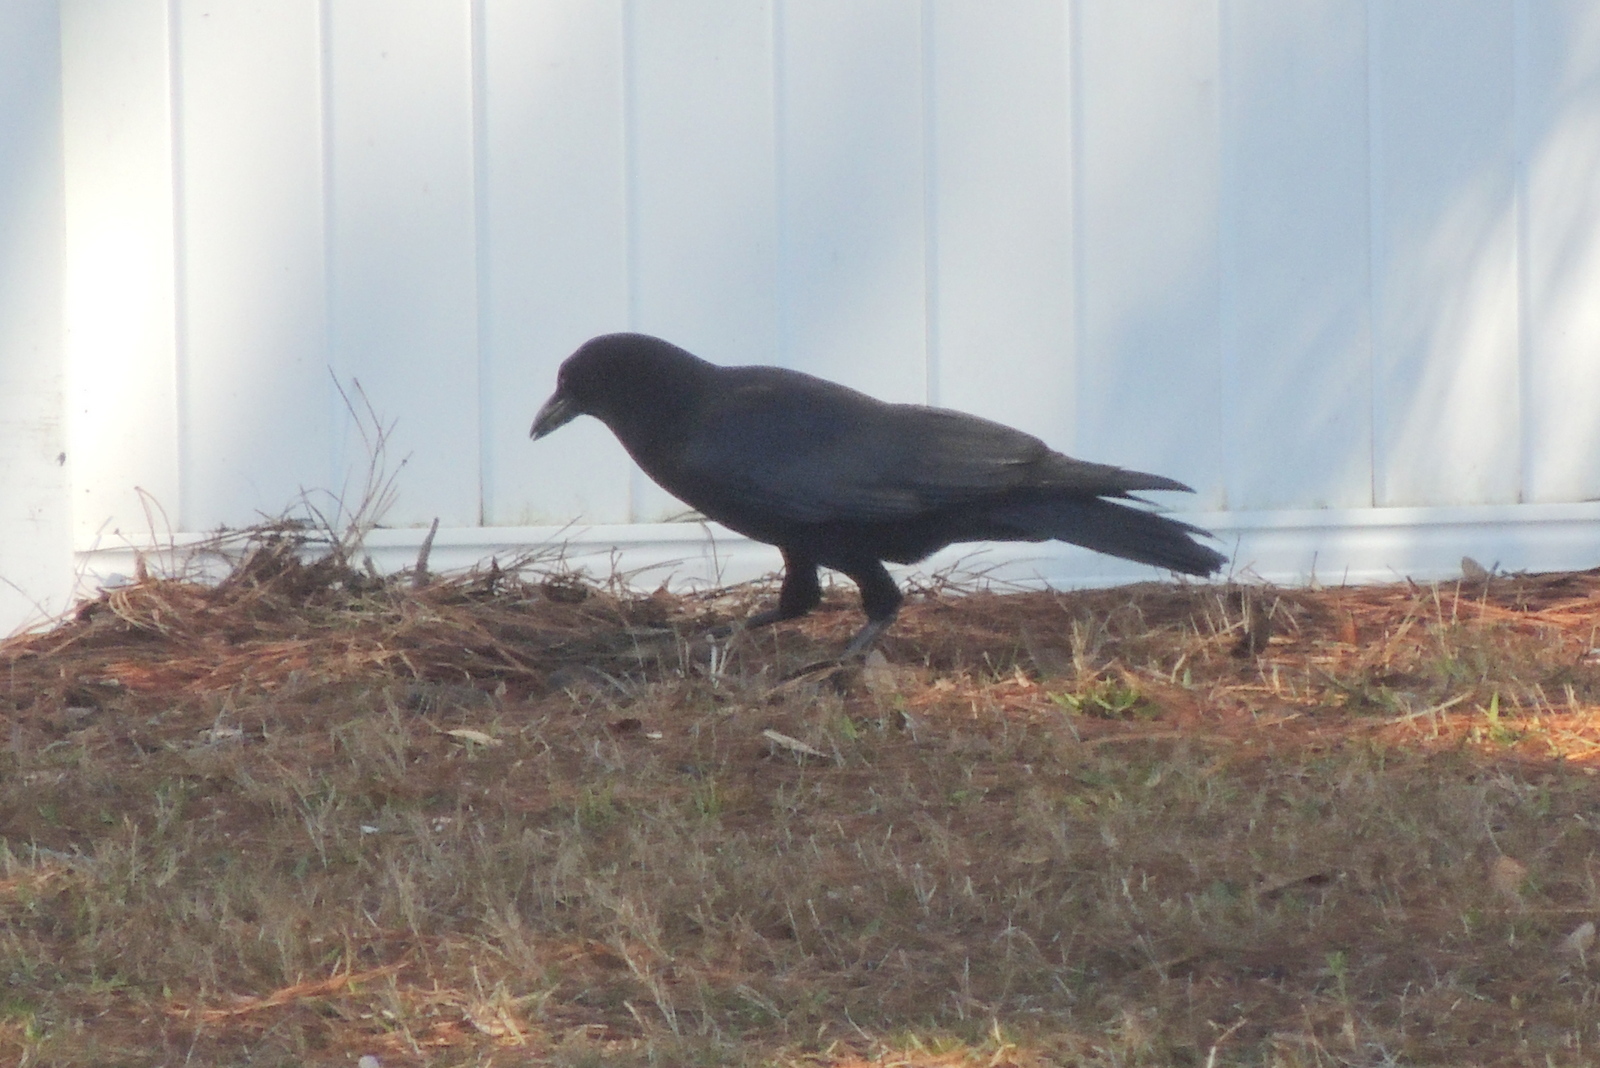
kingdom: Animalia
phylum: Chordata
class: Aves
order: Passeriformes
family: Corvidae
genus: Corvus
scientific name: Corvus
